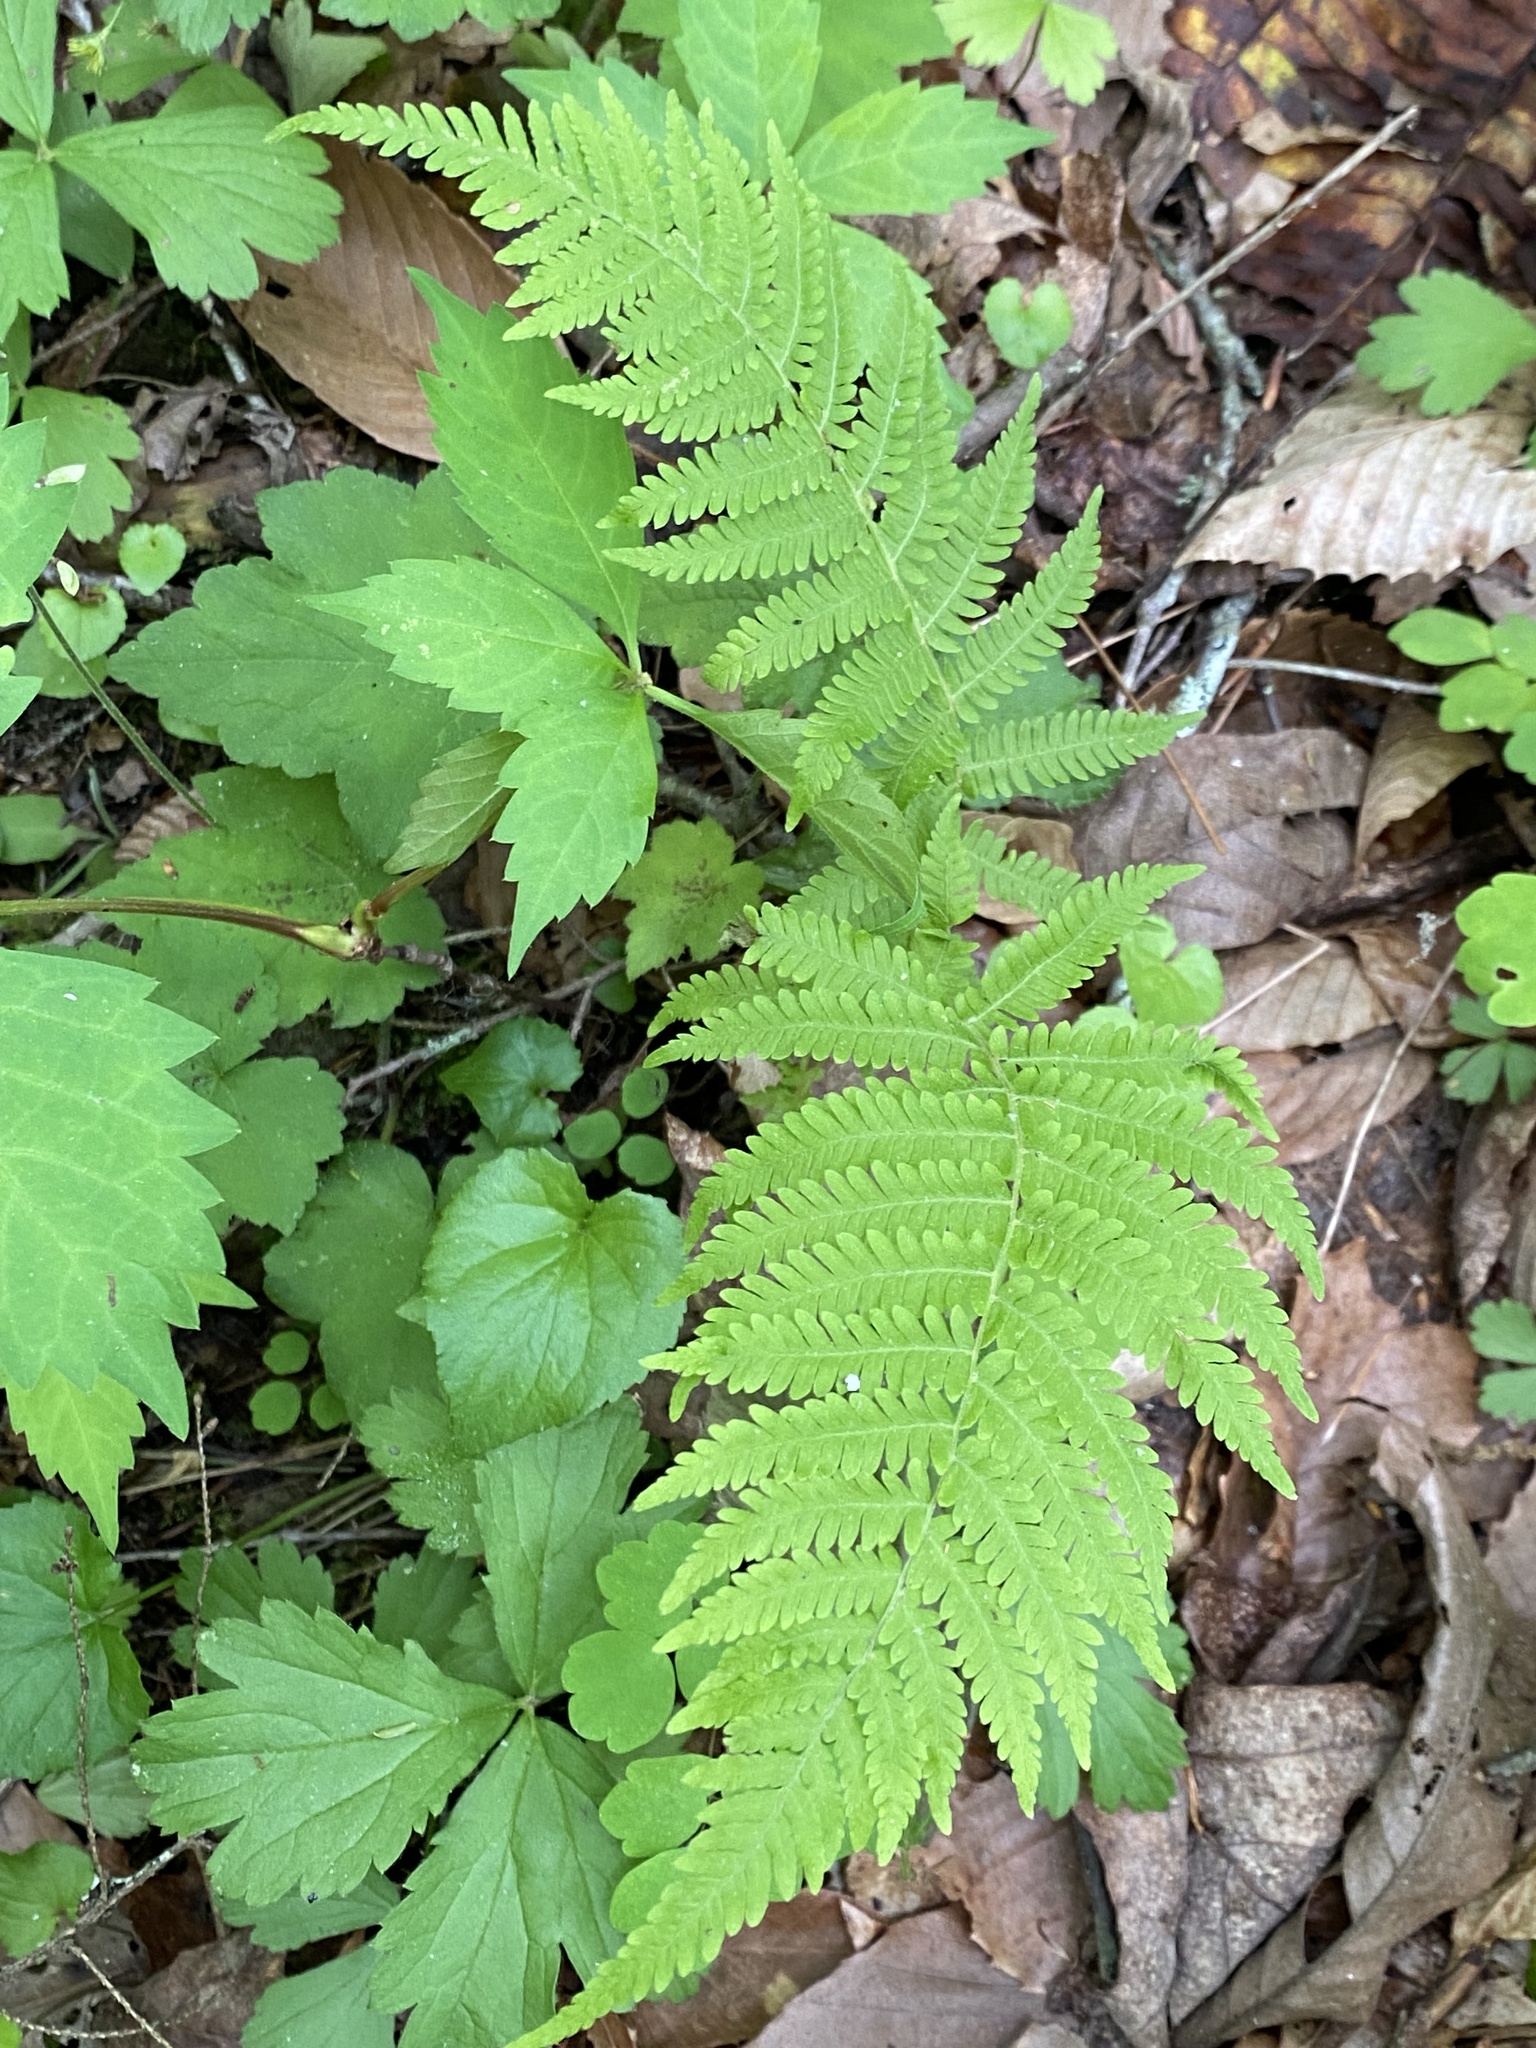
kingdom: Plantae
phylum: Tracheophyta
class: Polypodiopsida
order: Polypodiales
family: Thelypteridaceae
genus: Amauropelta
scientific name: Amauropelta noveboracensis
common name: New york fern
